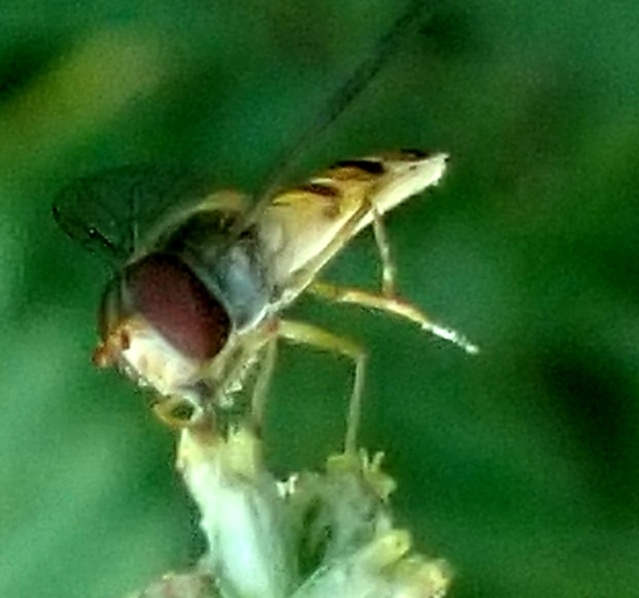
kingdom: Animalia
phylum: Arthropoda
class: Insecta
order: Diptera
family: Syrphidae
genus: Episyrphus
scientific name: Episyrphus balteatus
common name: Marmalade hoverfly
